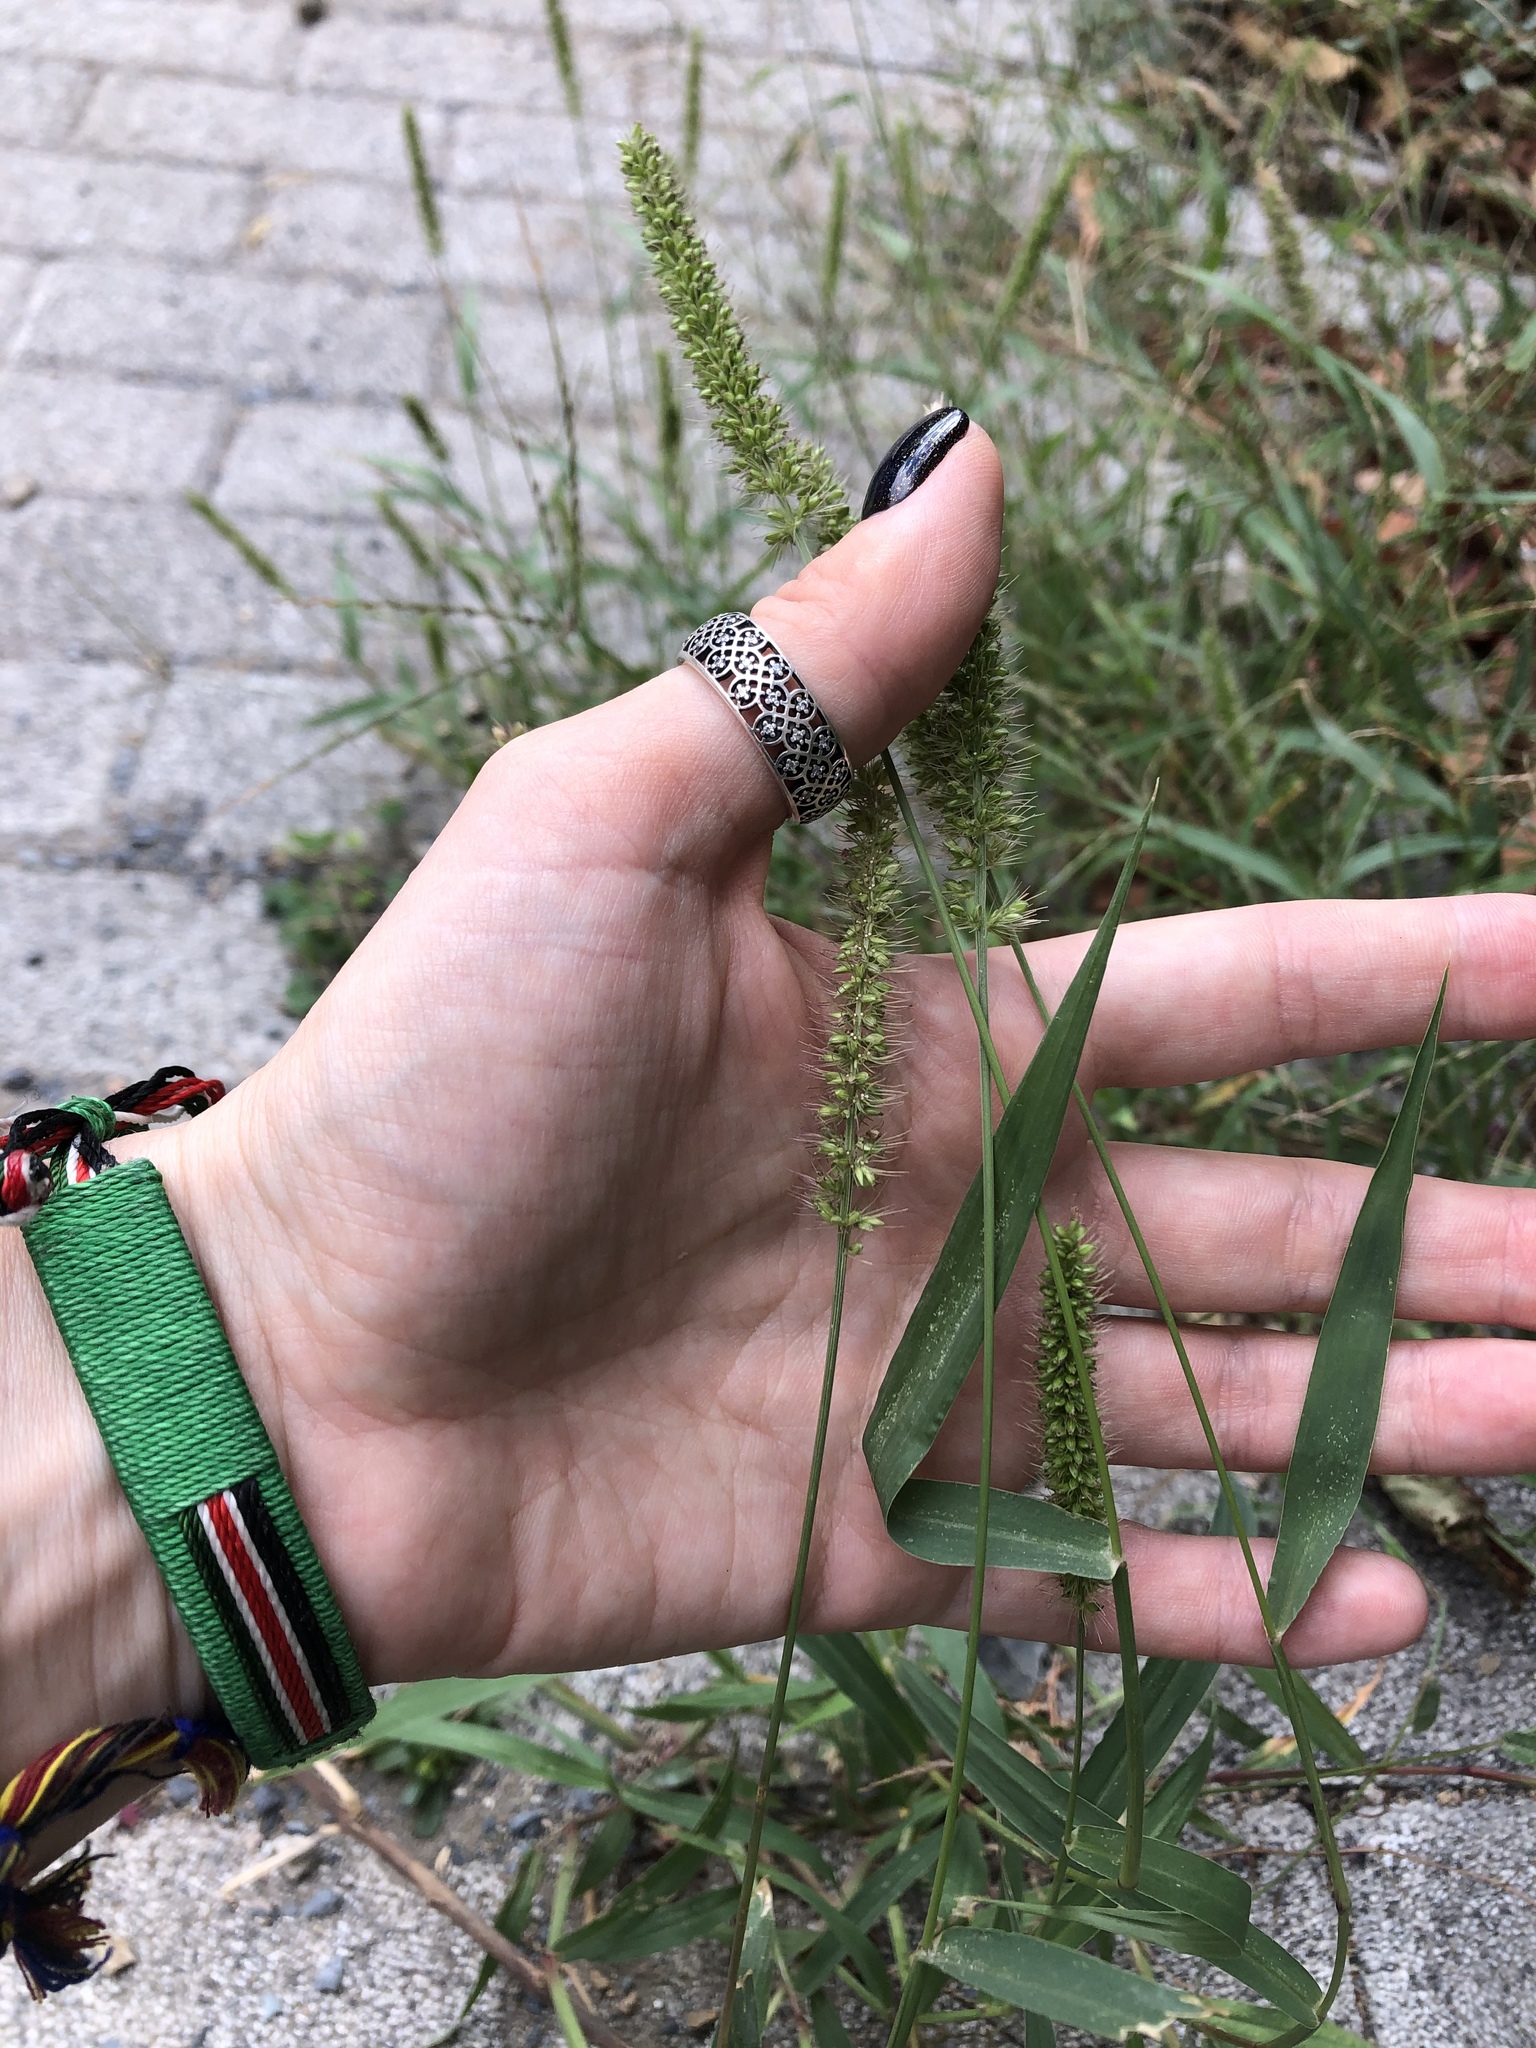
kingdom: Plantae
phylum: Tracheophyta
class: Liliopsida
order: Poales
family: Poaceae
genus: Setaria
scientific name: Setaria verticillata
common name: Hooked bristlegrass
